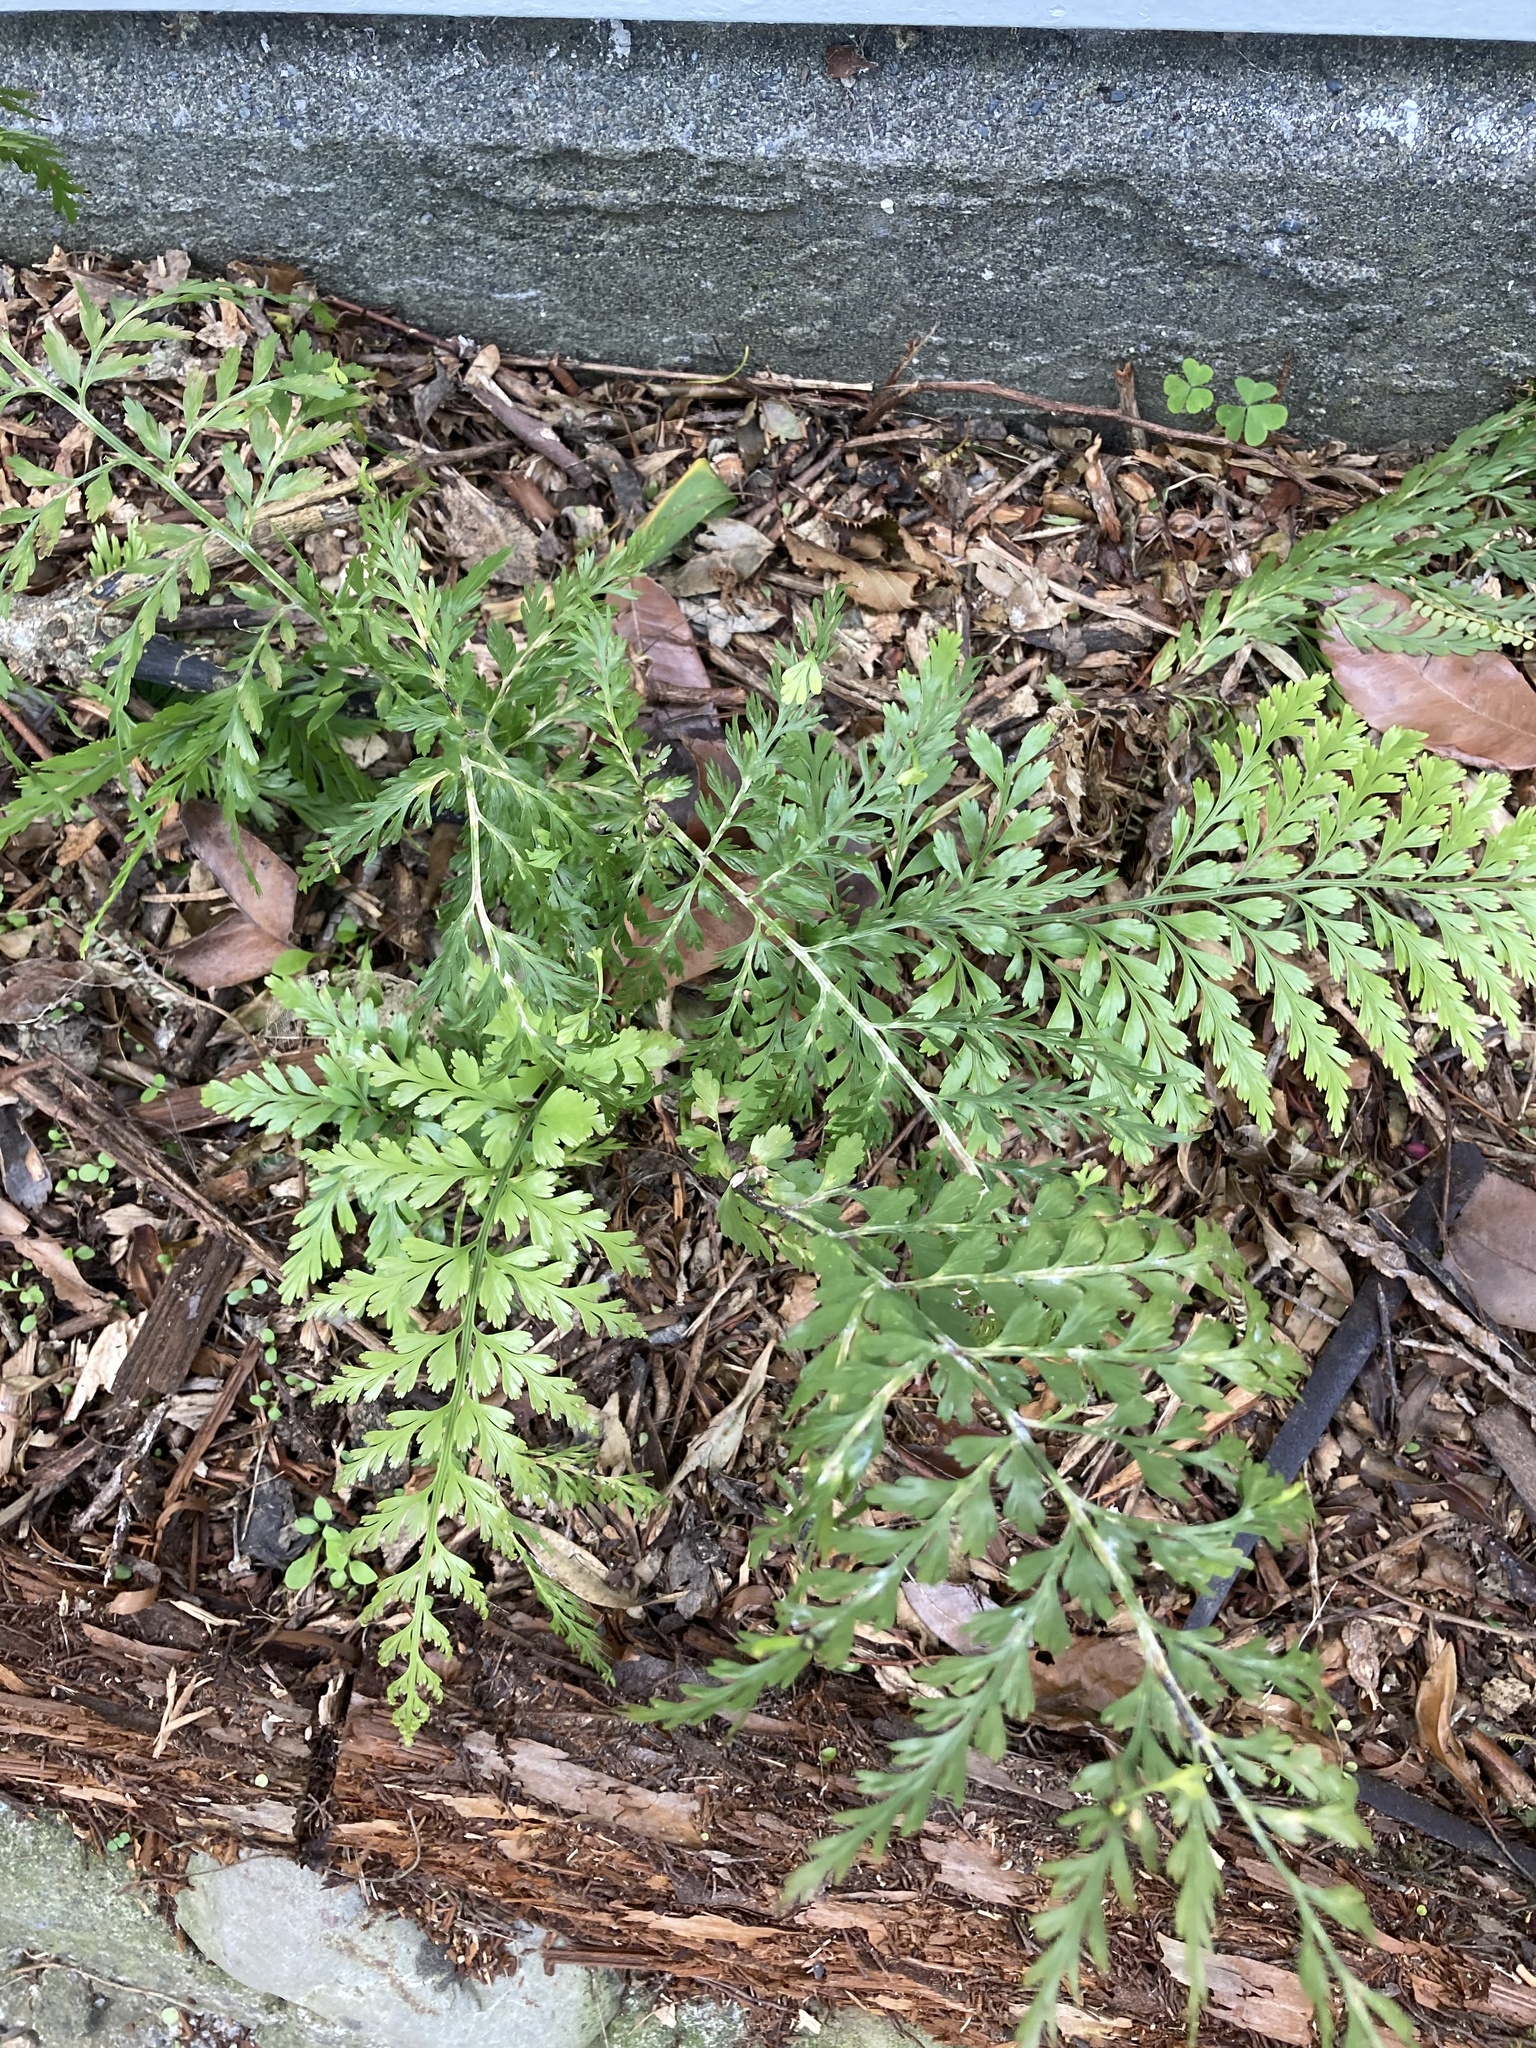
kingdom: Plantae
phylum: Tracheophyta
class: Polypodiopsida
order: Polypodiales
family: Aspleniaceae
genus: Asplenium
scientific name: Asplenium lucrosum
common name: False hen-and-chickens fern
